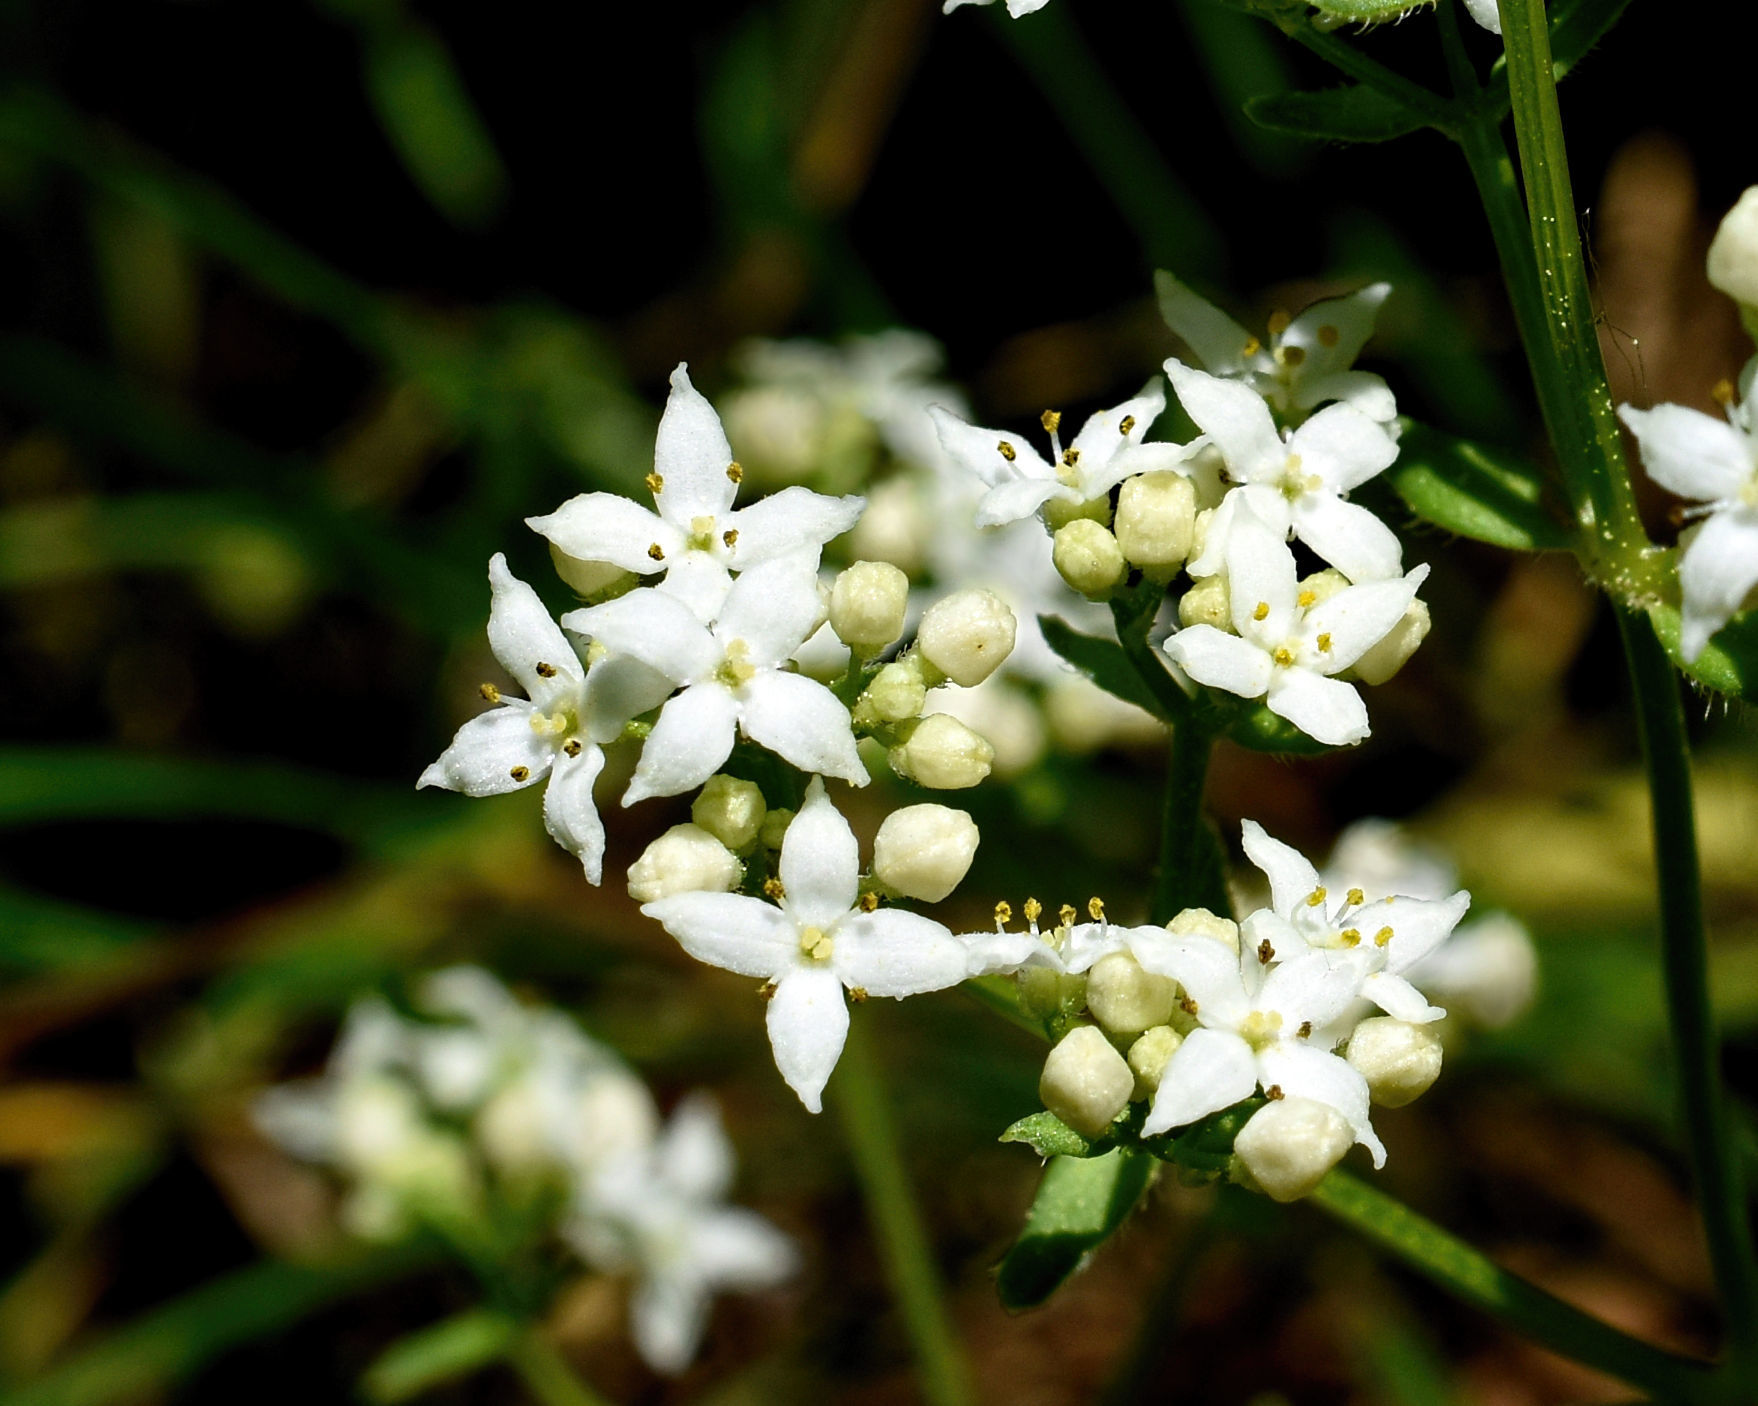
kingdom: Plantae
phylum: Tracheophyta
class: Magnoliopsida
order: Gentianales
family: Rubiaceae
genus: Galium
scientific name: Galium boreale
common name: Northern bedstraw
